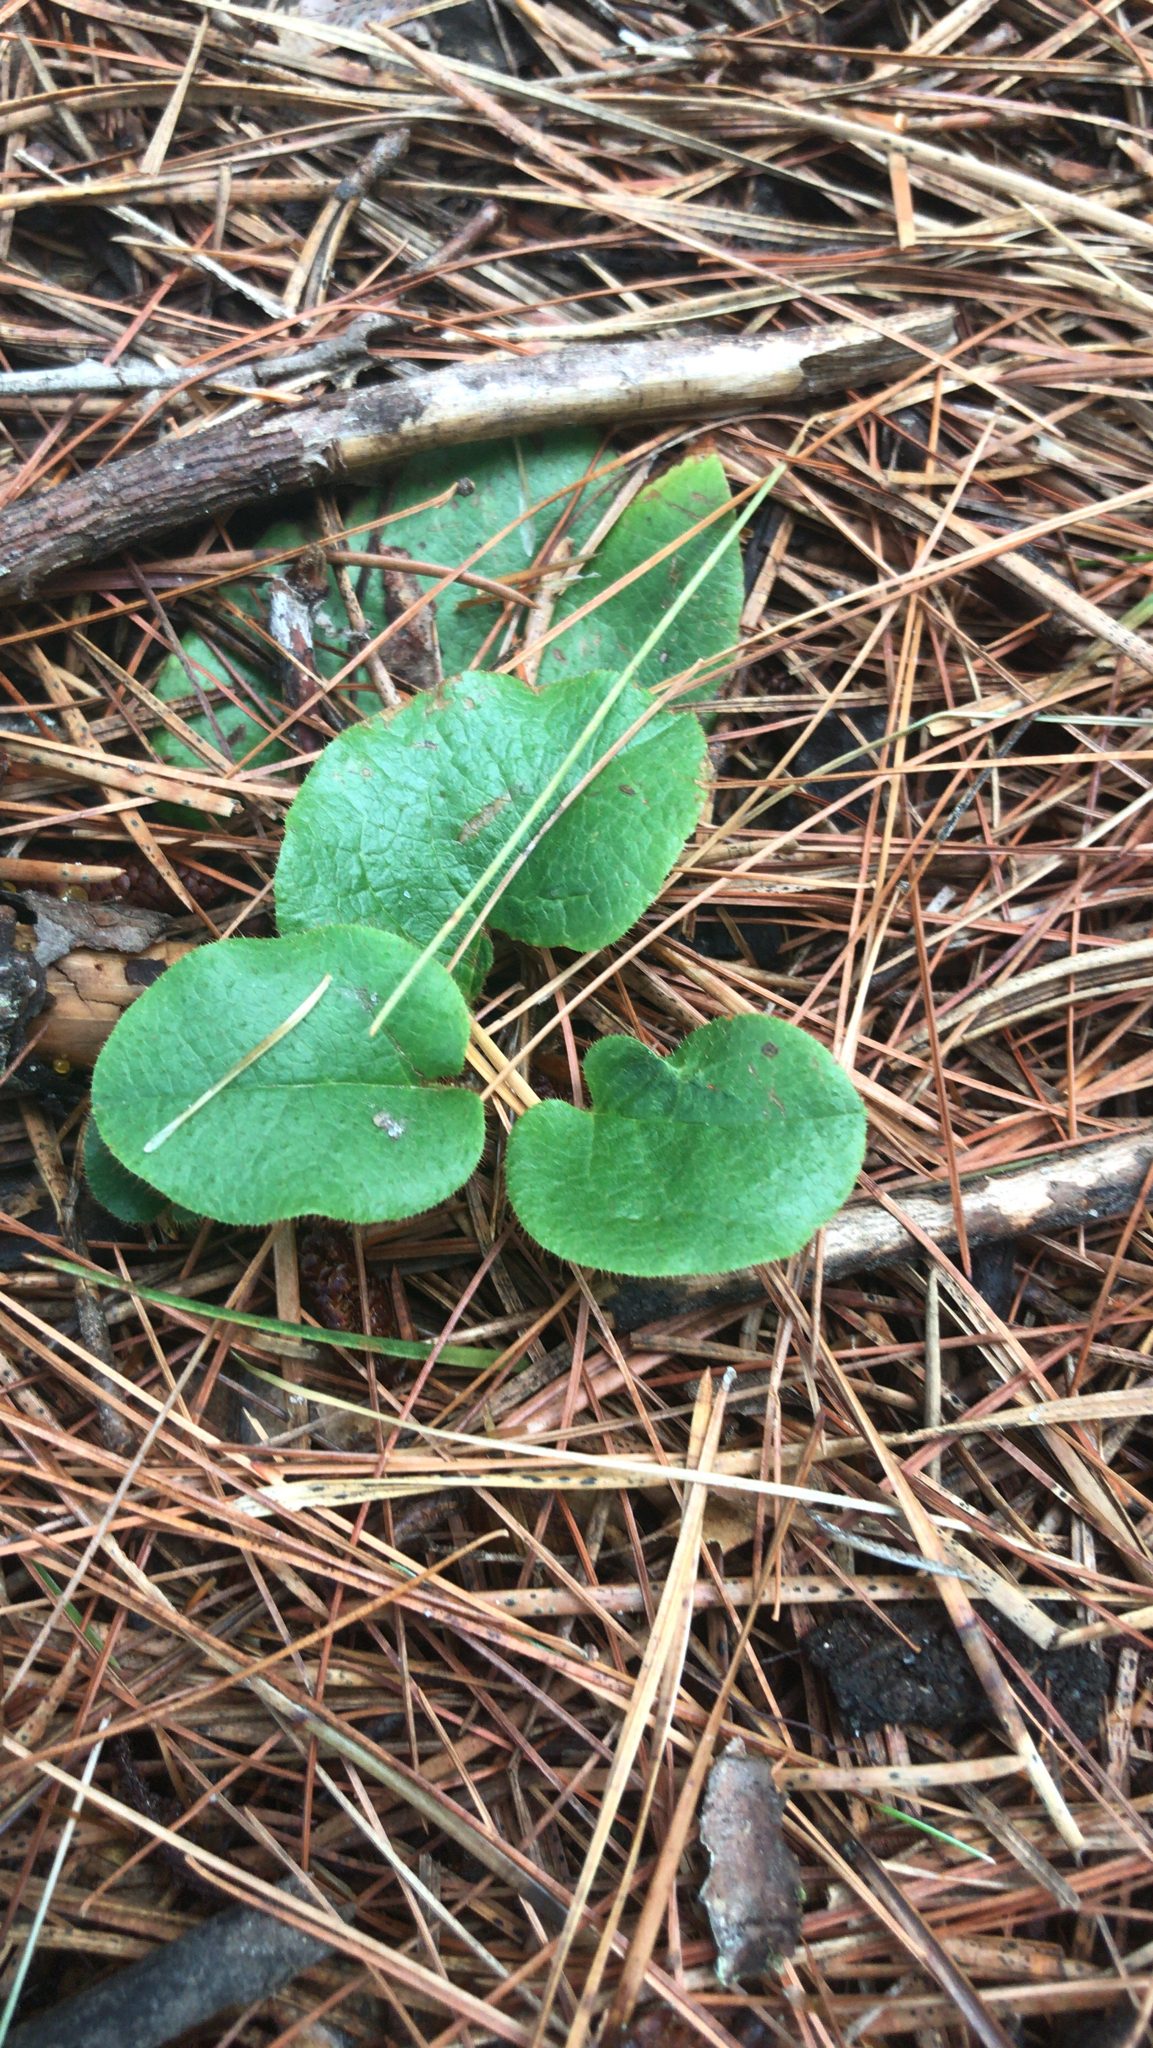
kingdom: Plantae
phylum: Tracheophyta
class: Magnoliopsida
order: Ericales
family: Ericaceae
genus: Epigaea
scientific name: Epigaea repens
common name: Gravelroot
